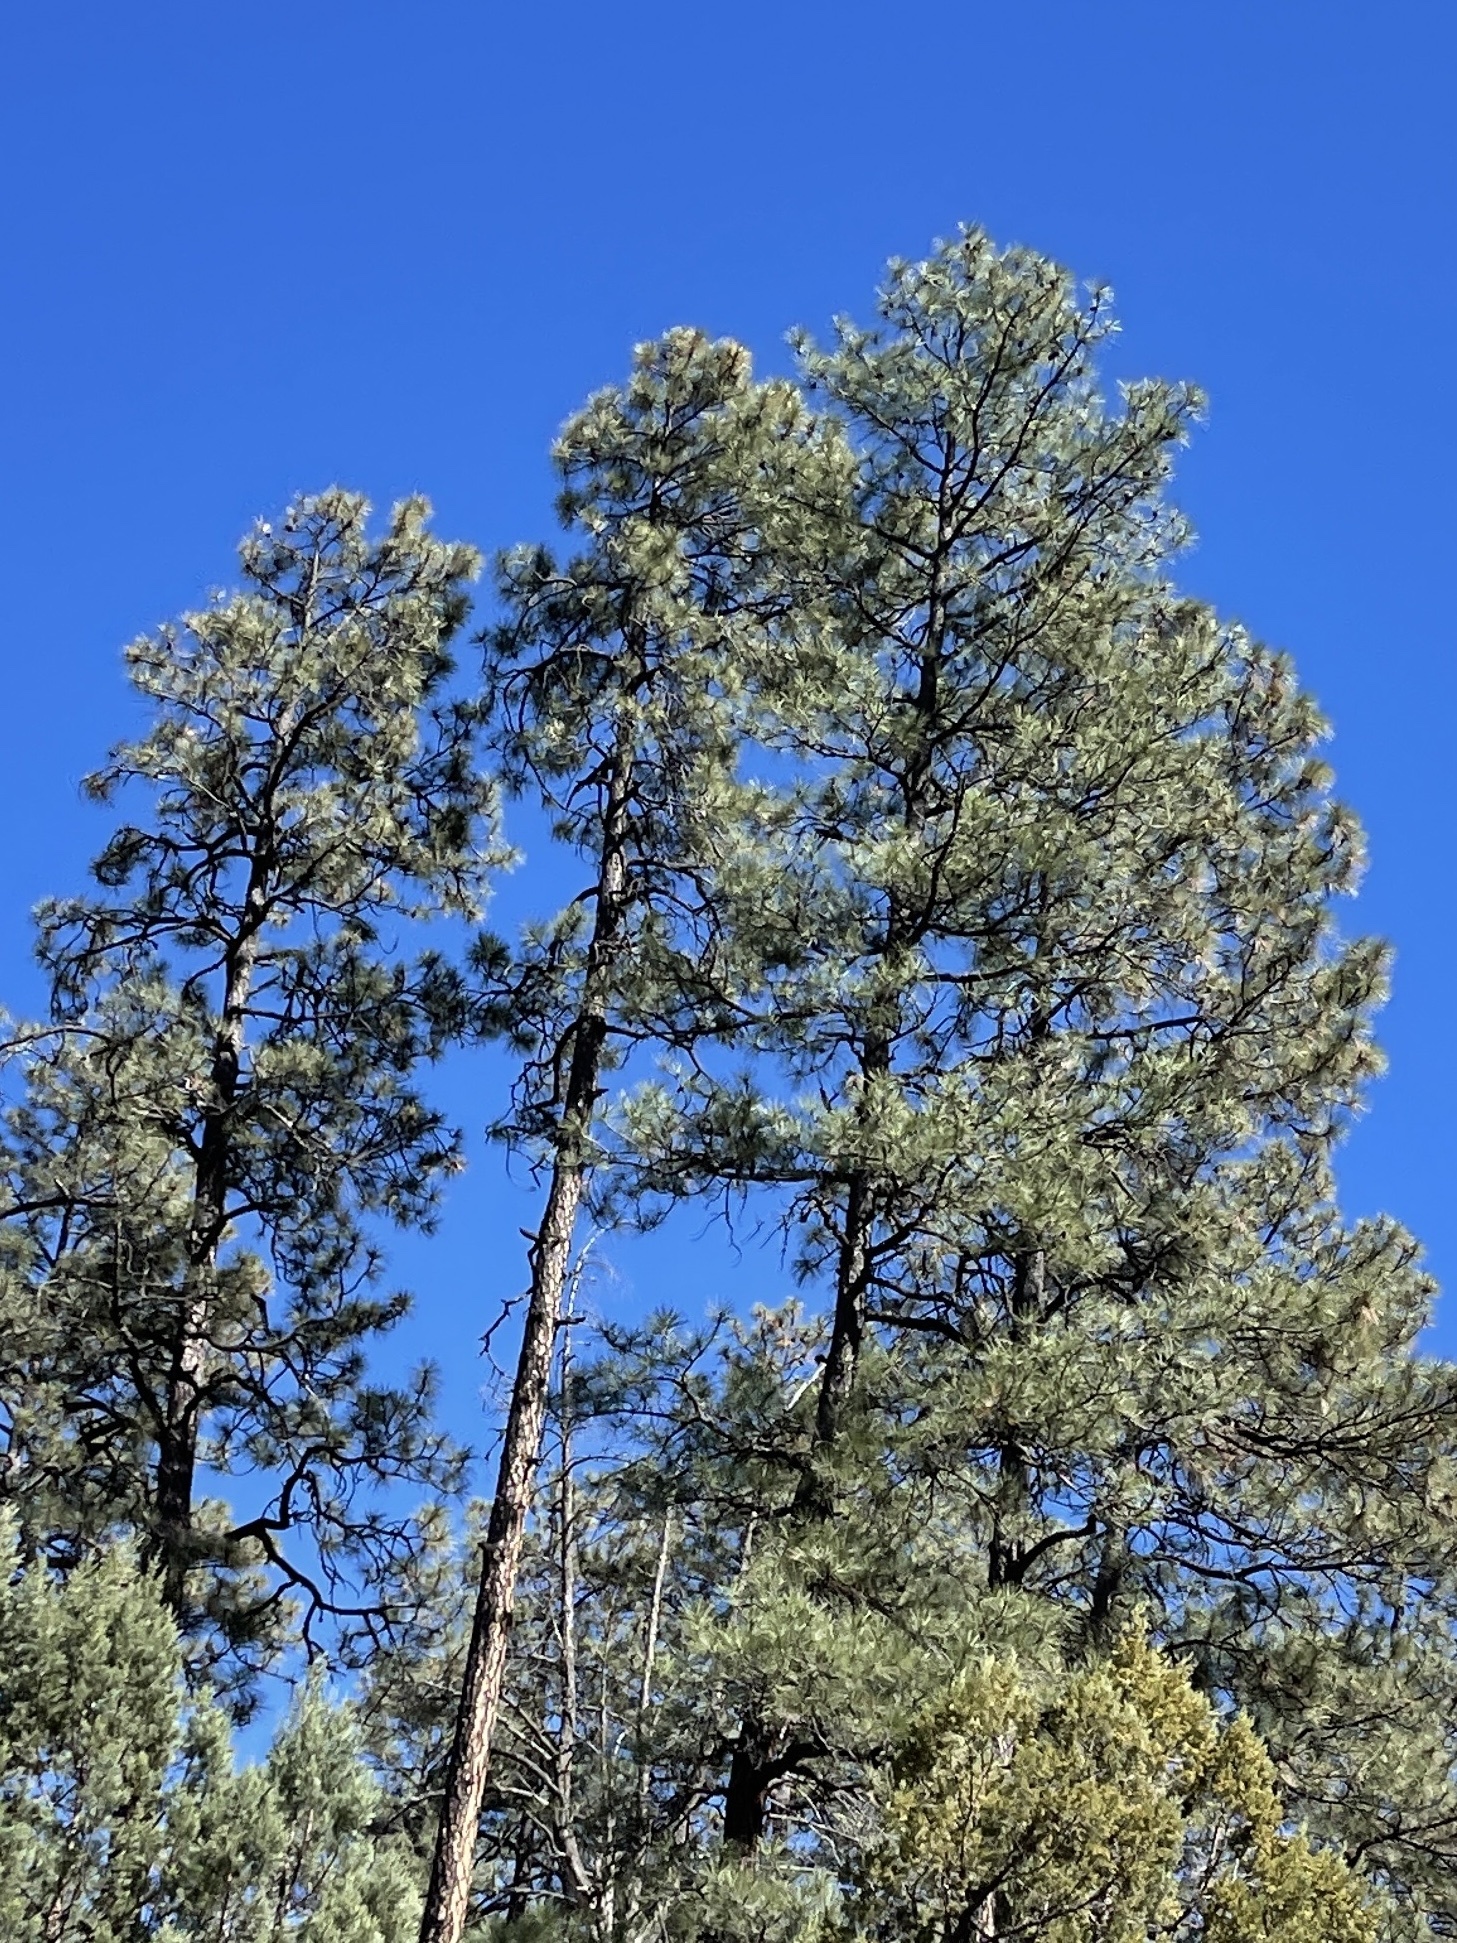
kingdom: Plantae
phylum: Tracheophyta
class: Pinopsida
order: Pinales
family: Pinaceae
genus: Pinus
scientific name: Pinus ponderosa
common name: Western yellow-pine
